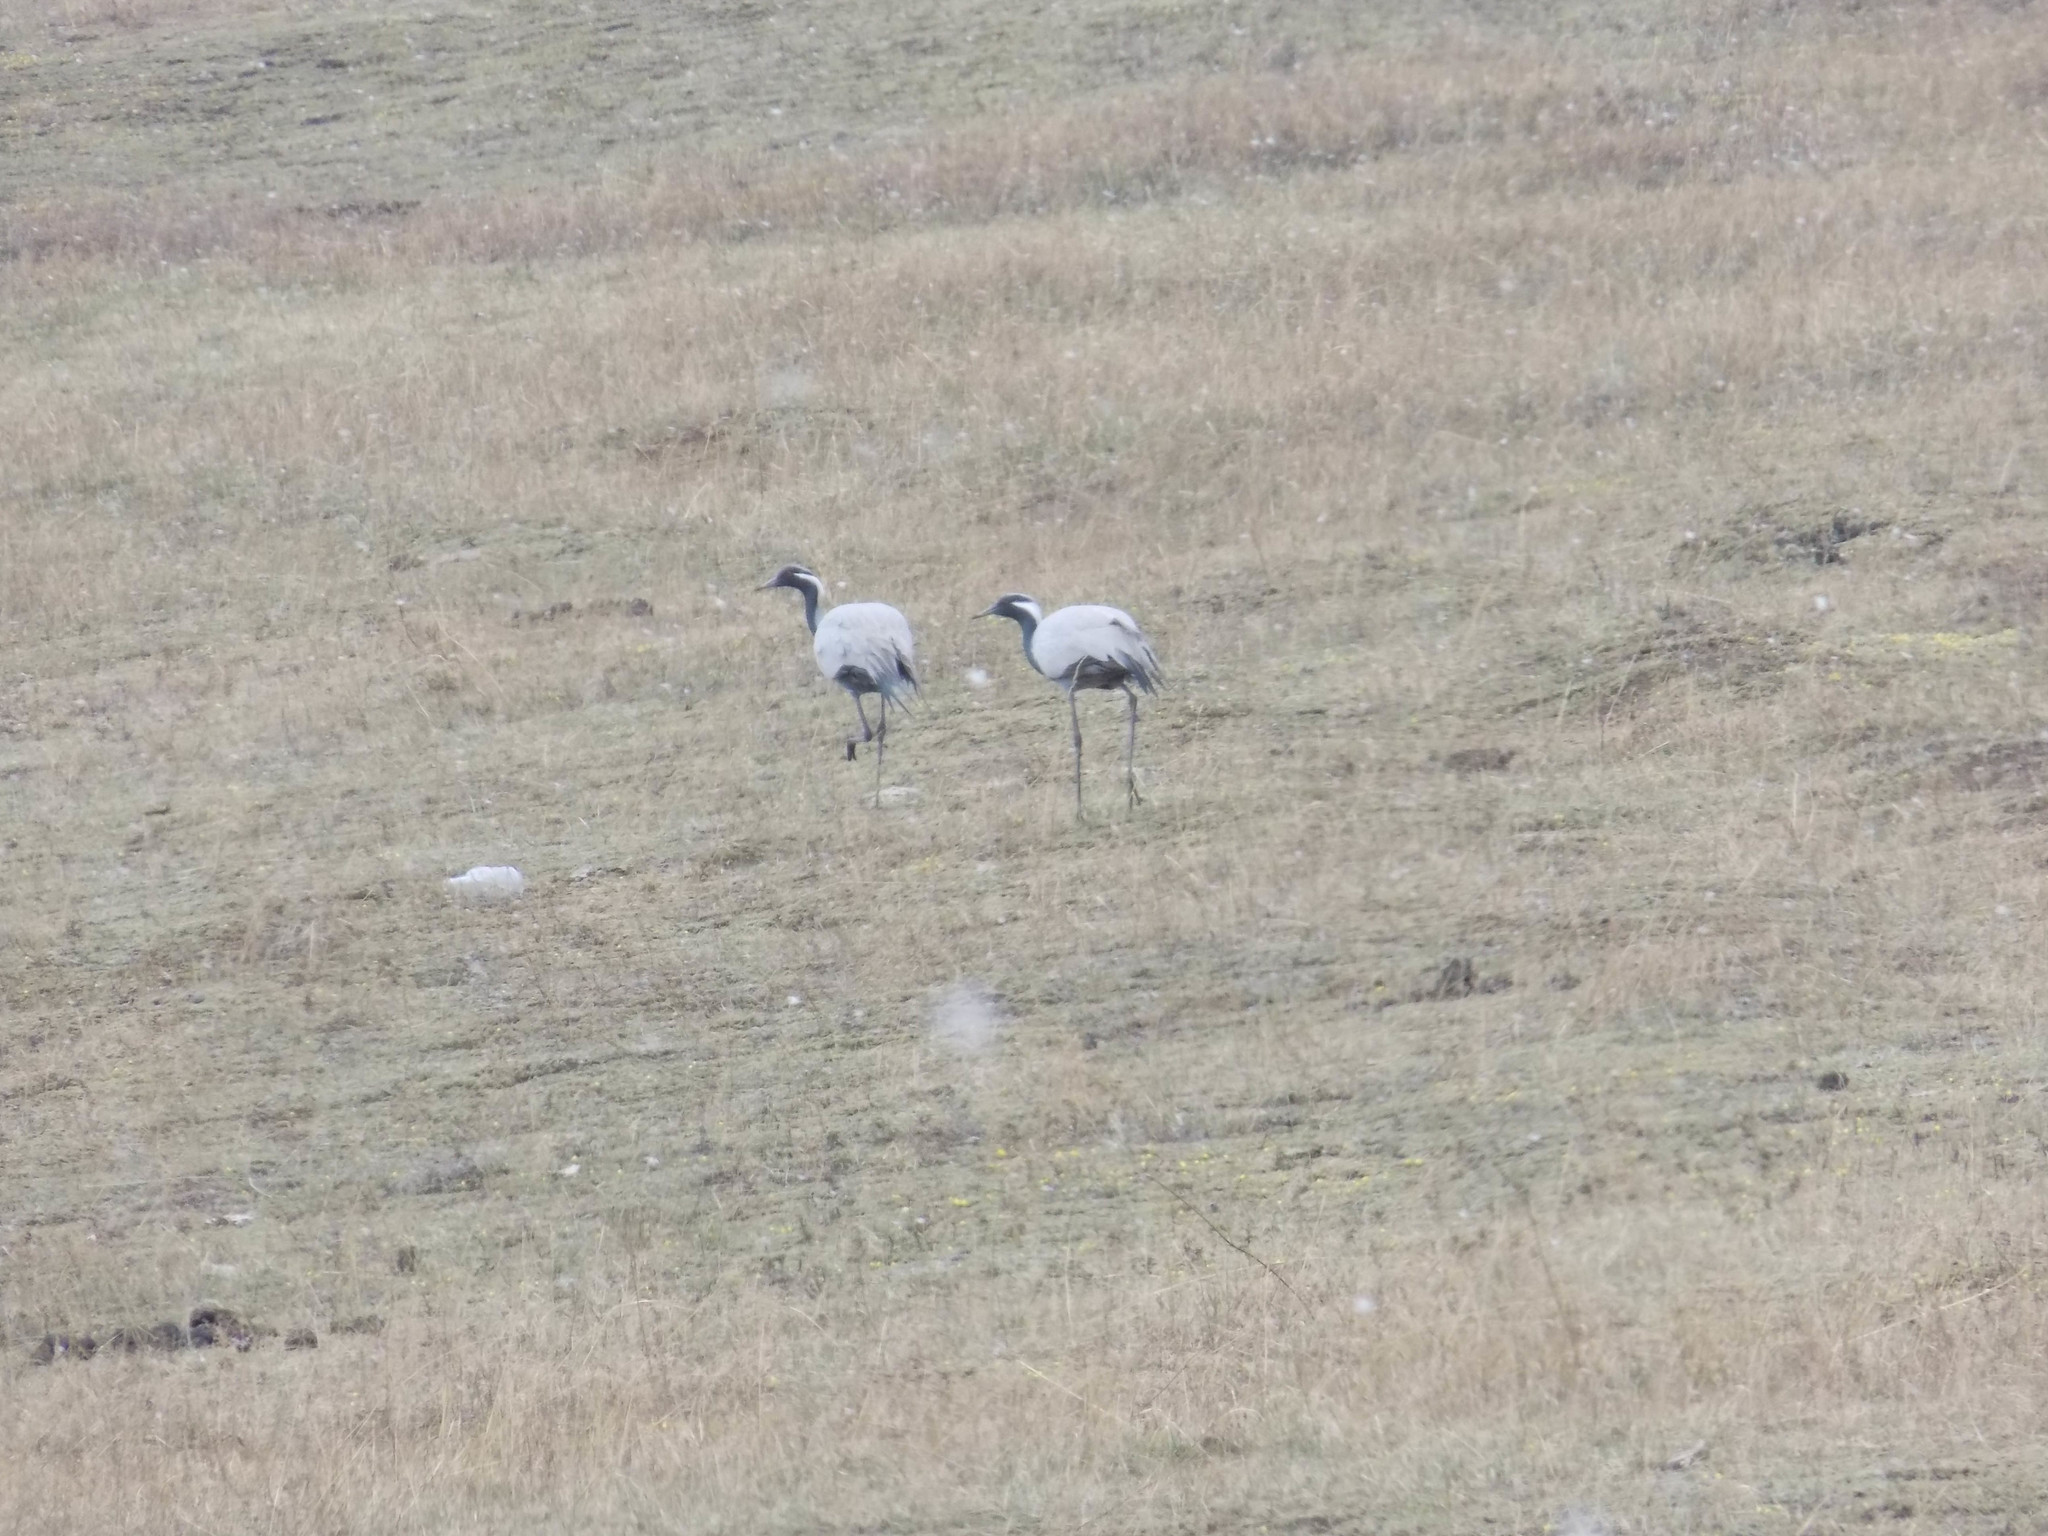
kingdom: Animalia
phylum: Chordata
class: Aves
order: Gruiformes
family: Gruidae
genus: Anthropoides
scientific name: Anthropoides virgo
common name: Demoiselle crane
